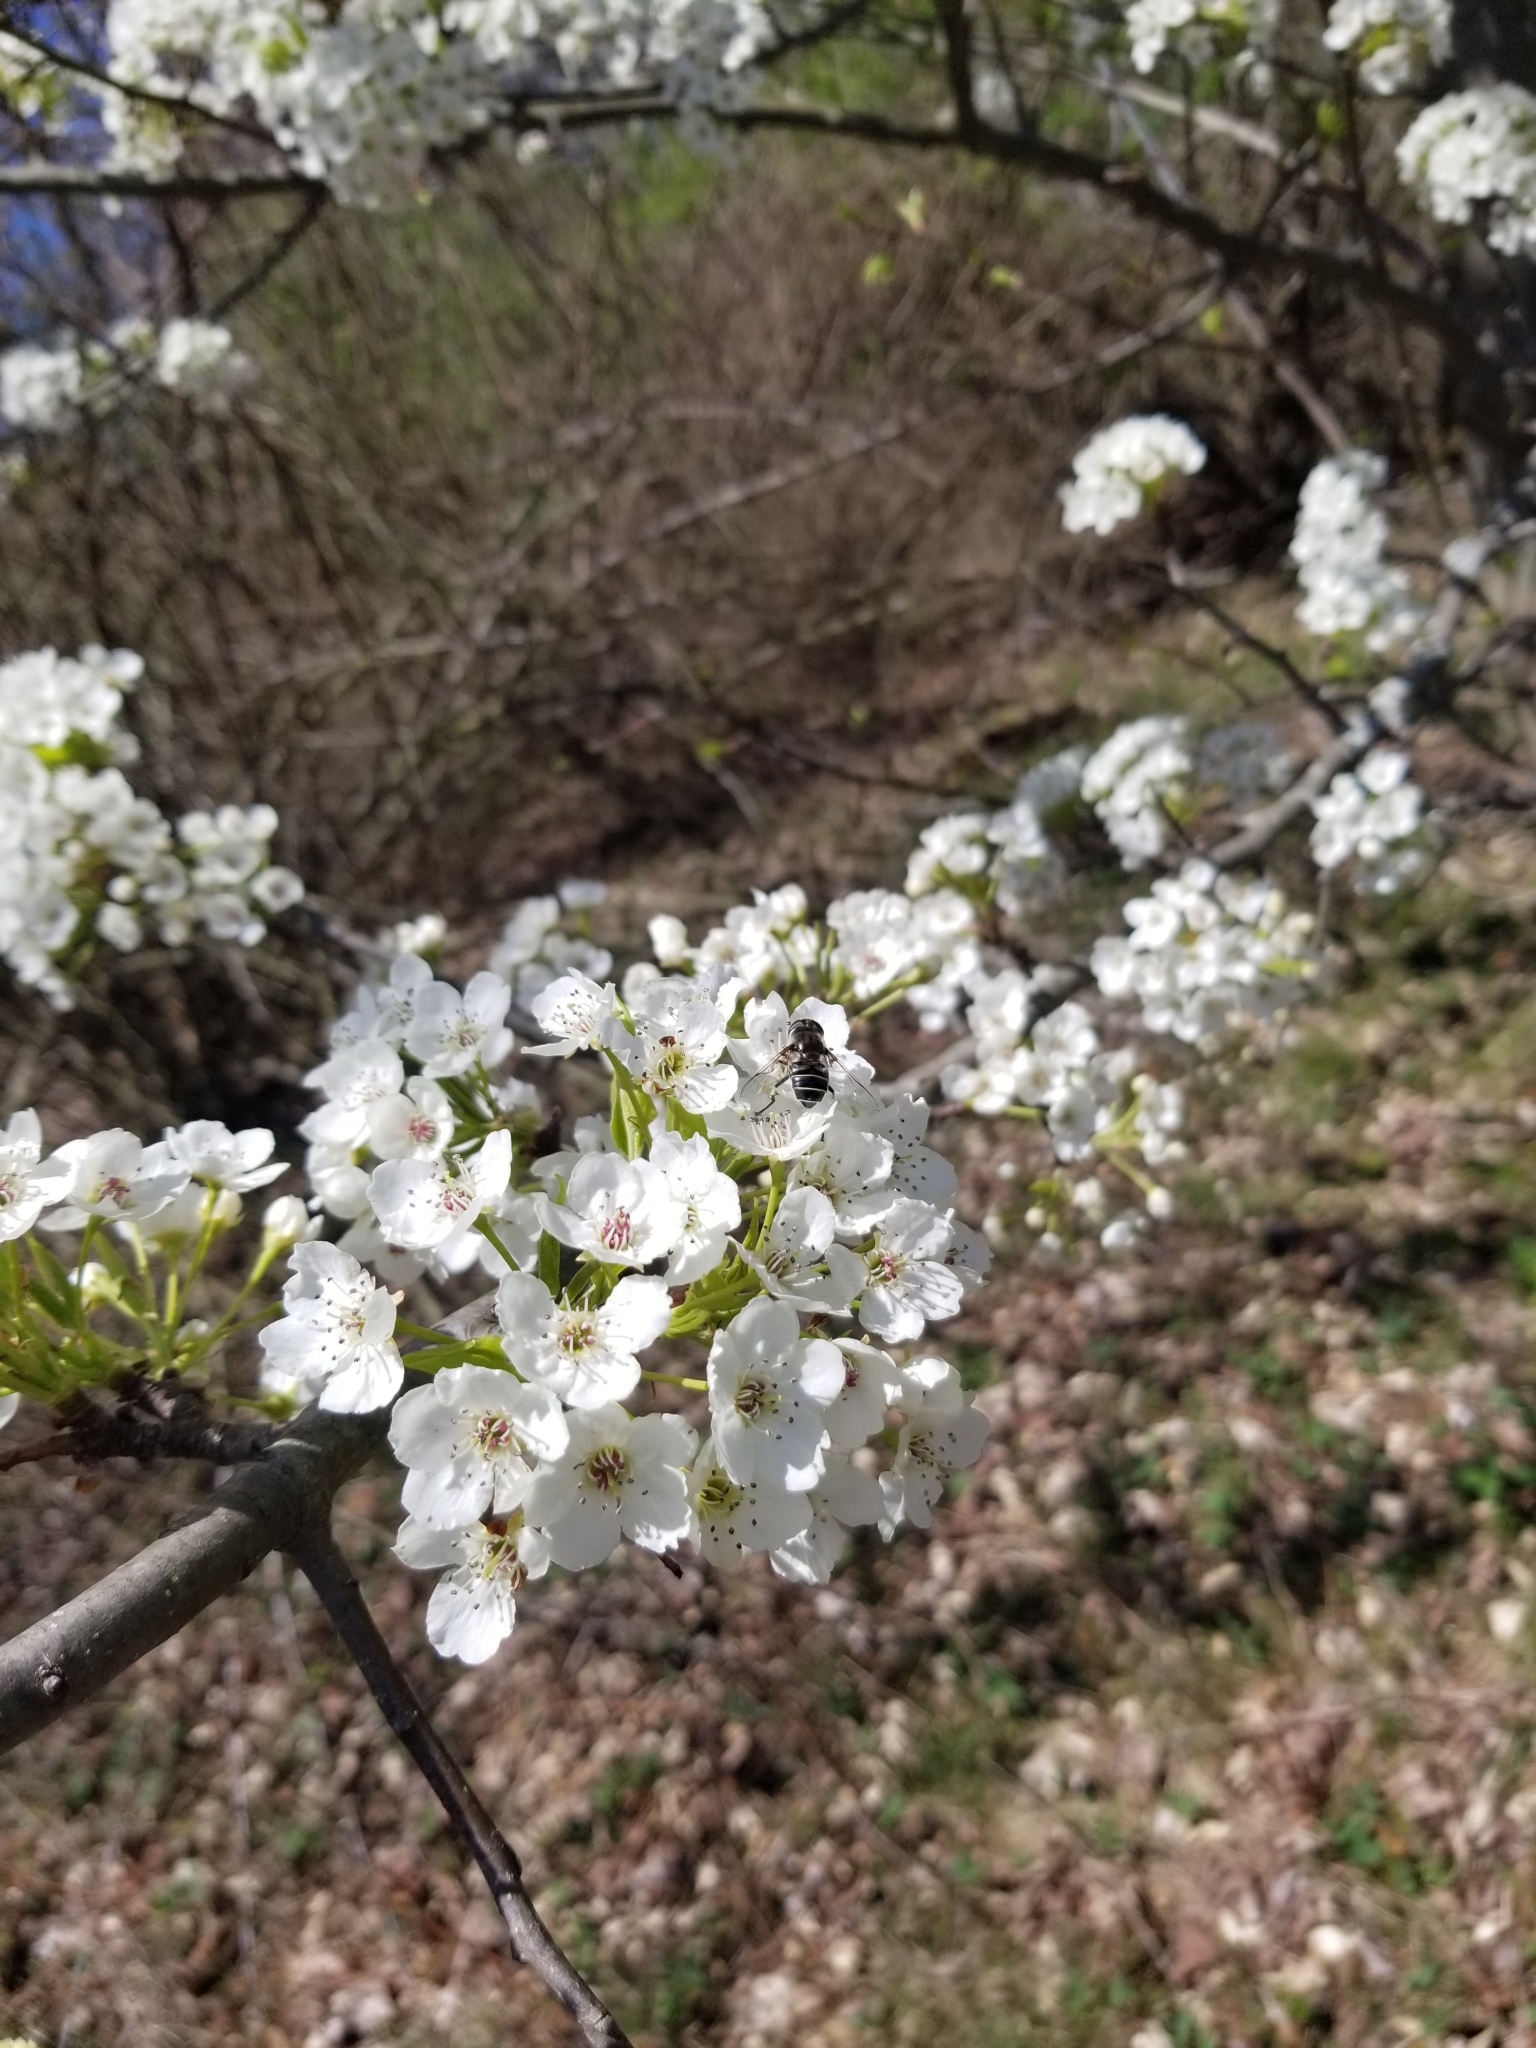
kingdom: Animalia
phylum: Arthropoda
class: Insecta
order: Diptera
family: Syrphidae
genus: Eristalis
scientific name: Eristalis dimidiata
